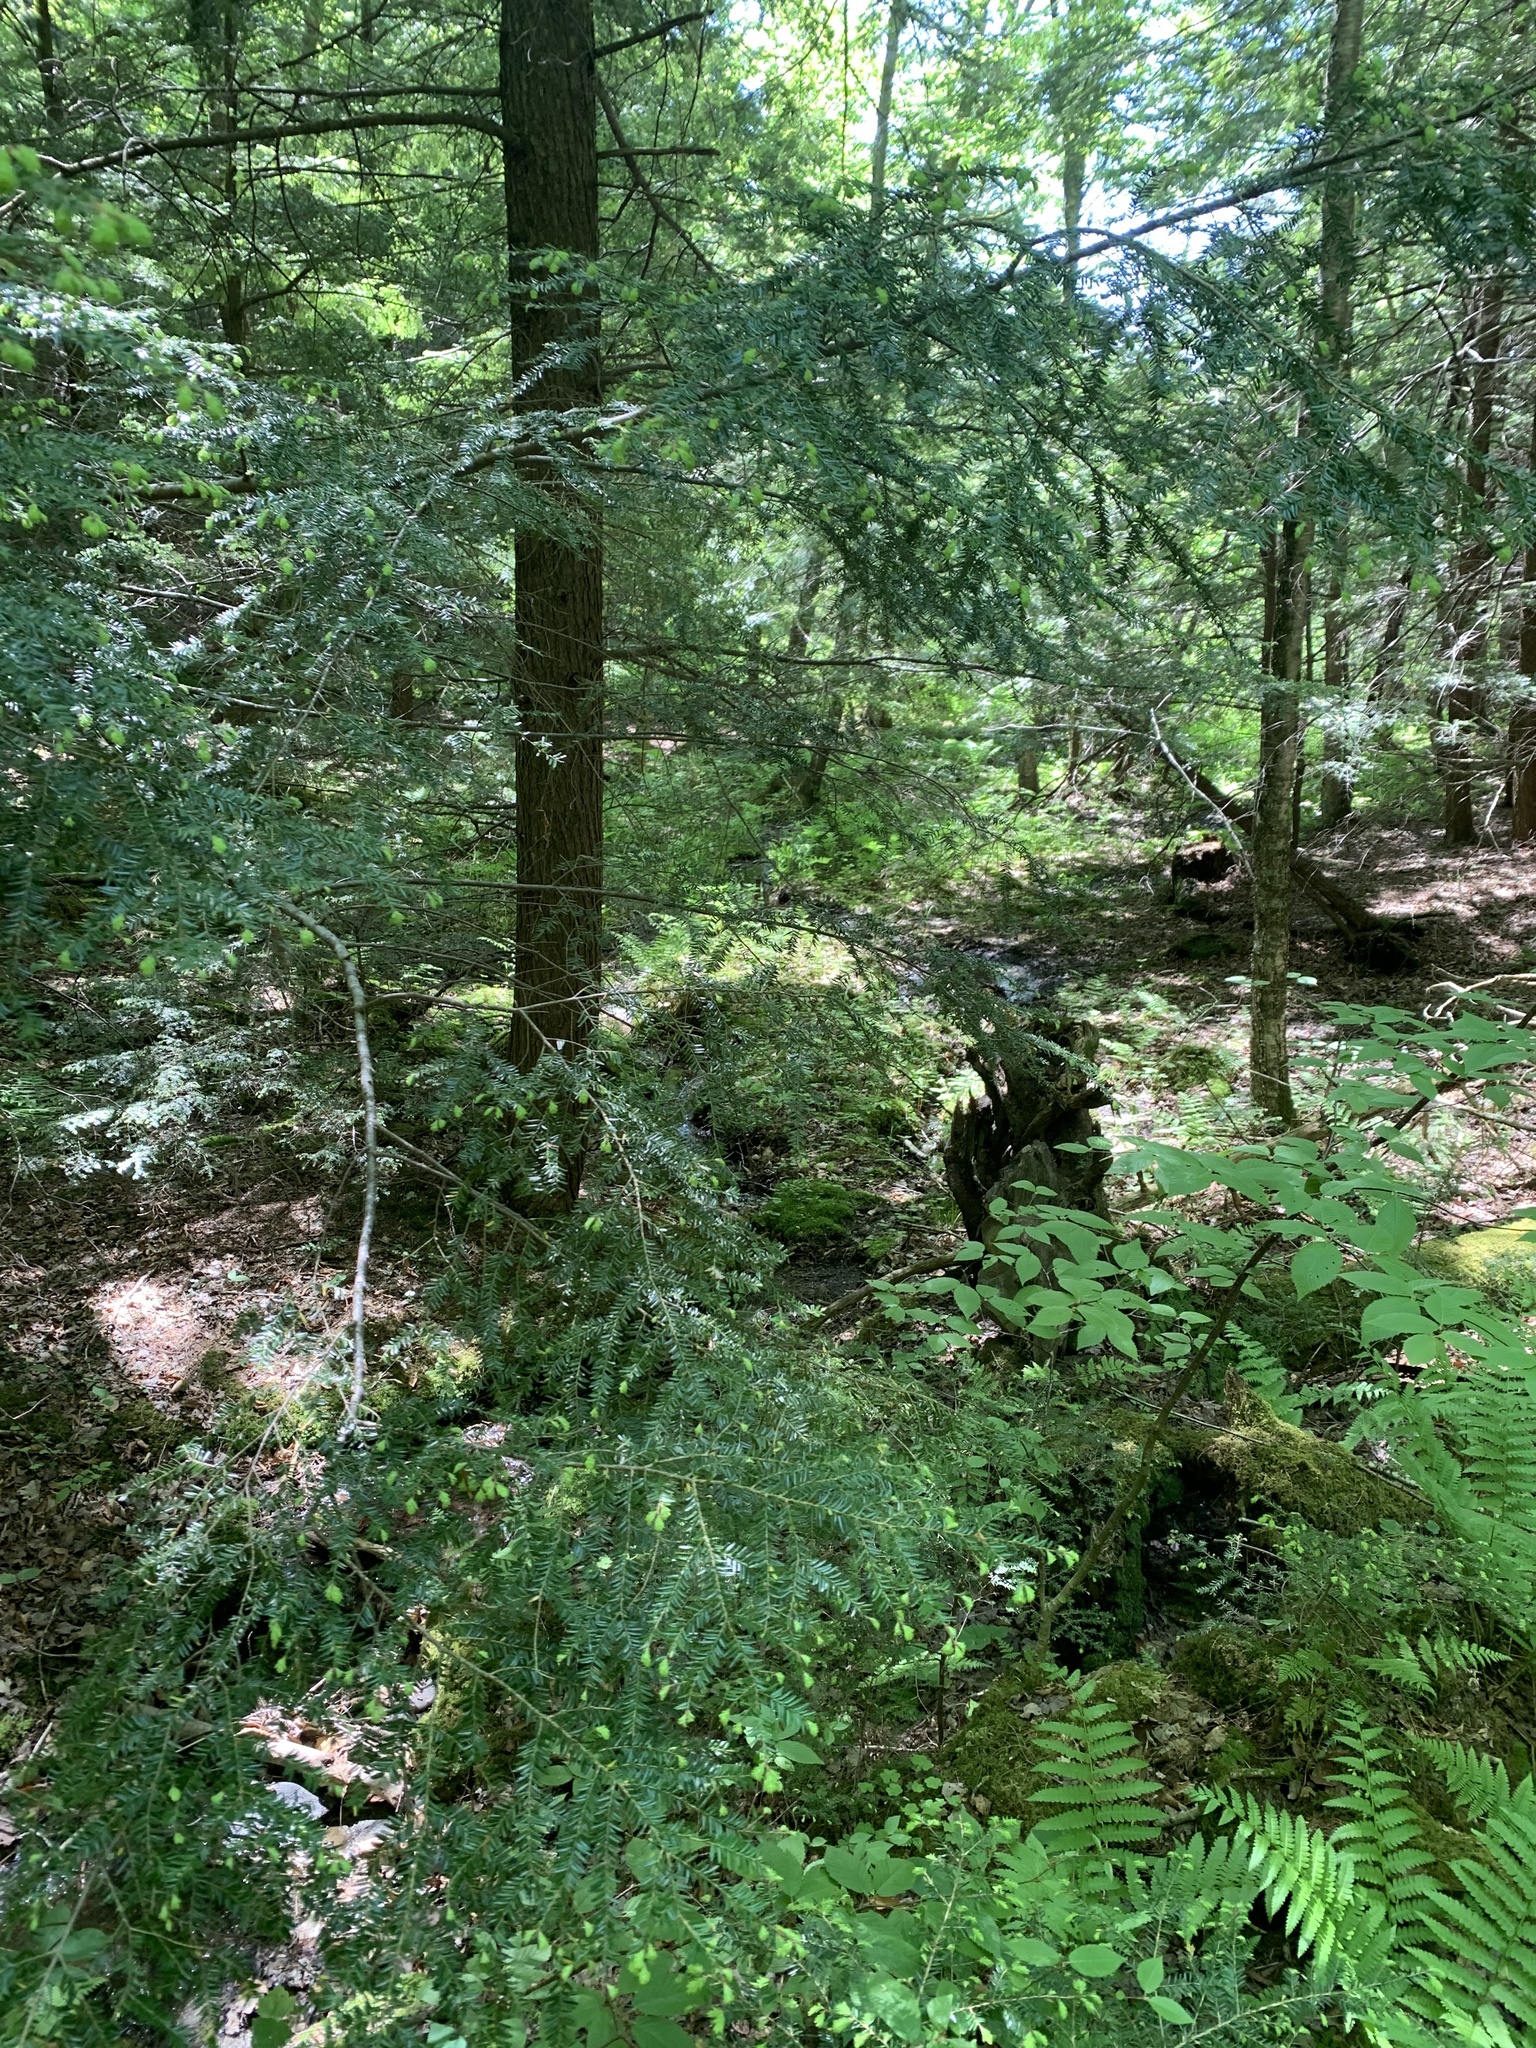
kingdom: Plantae
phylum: Tracheophyta
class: Pinopsida
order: Pinales
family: Pinaceae
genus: Tsuga
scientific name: Tsuga canadensis
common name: Eastern hemlock
